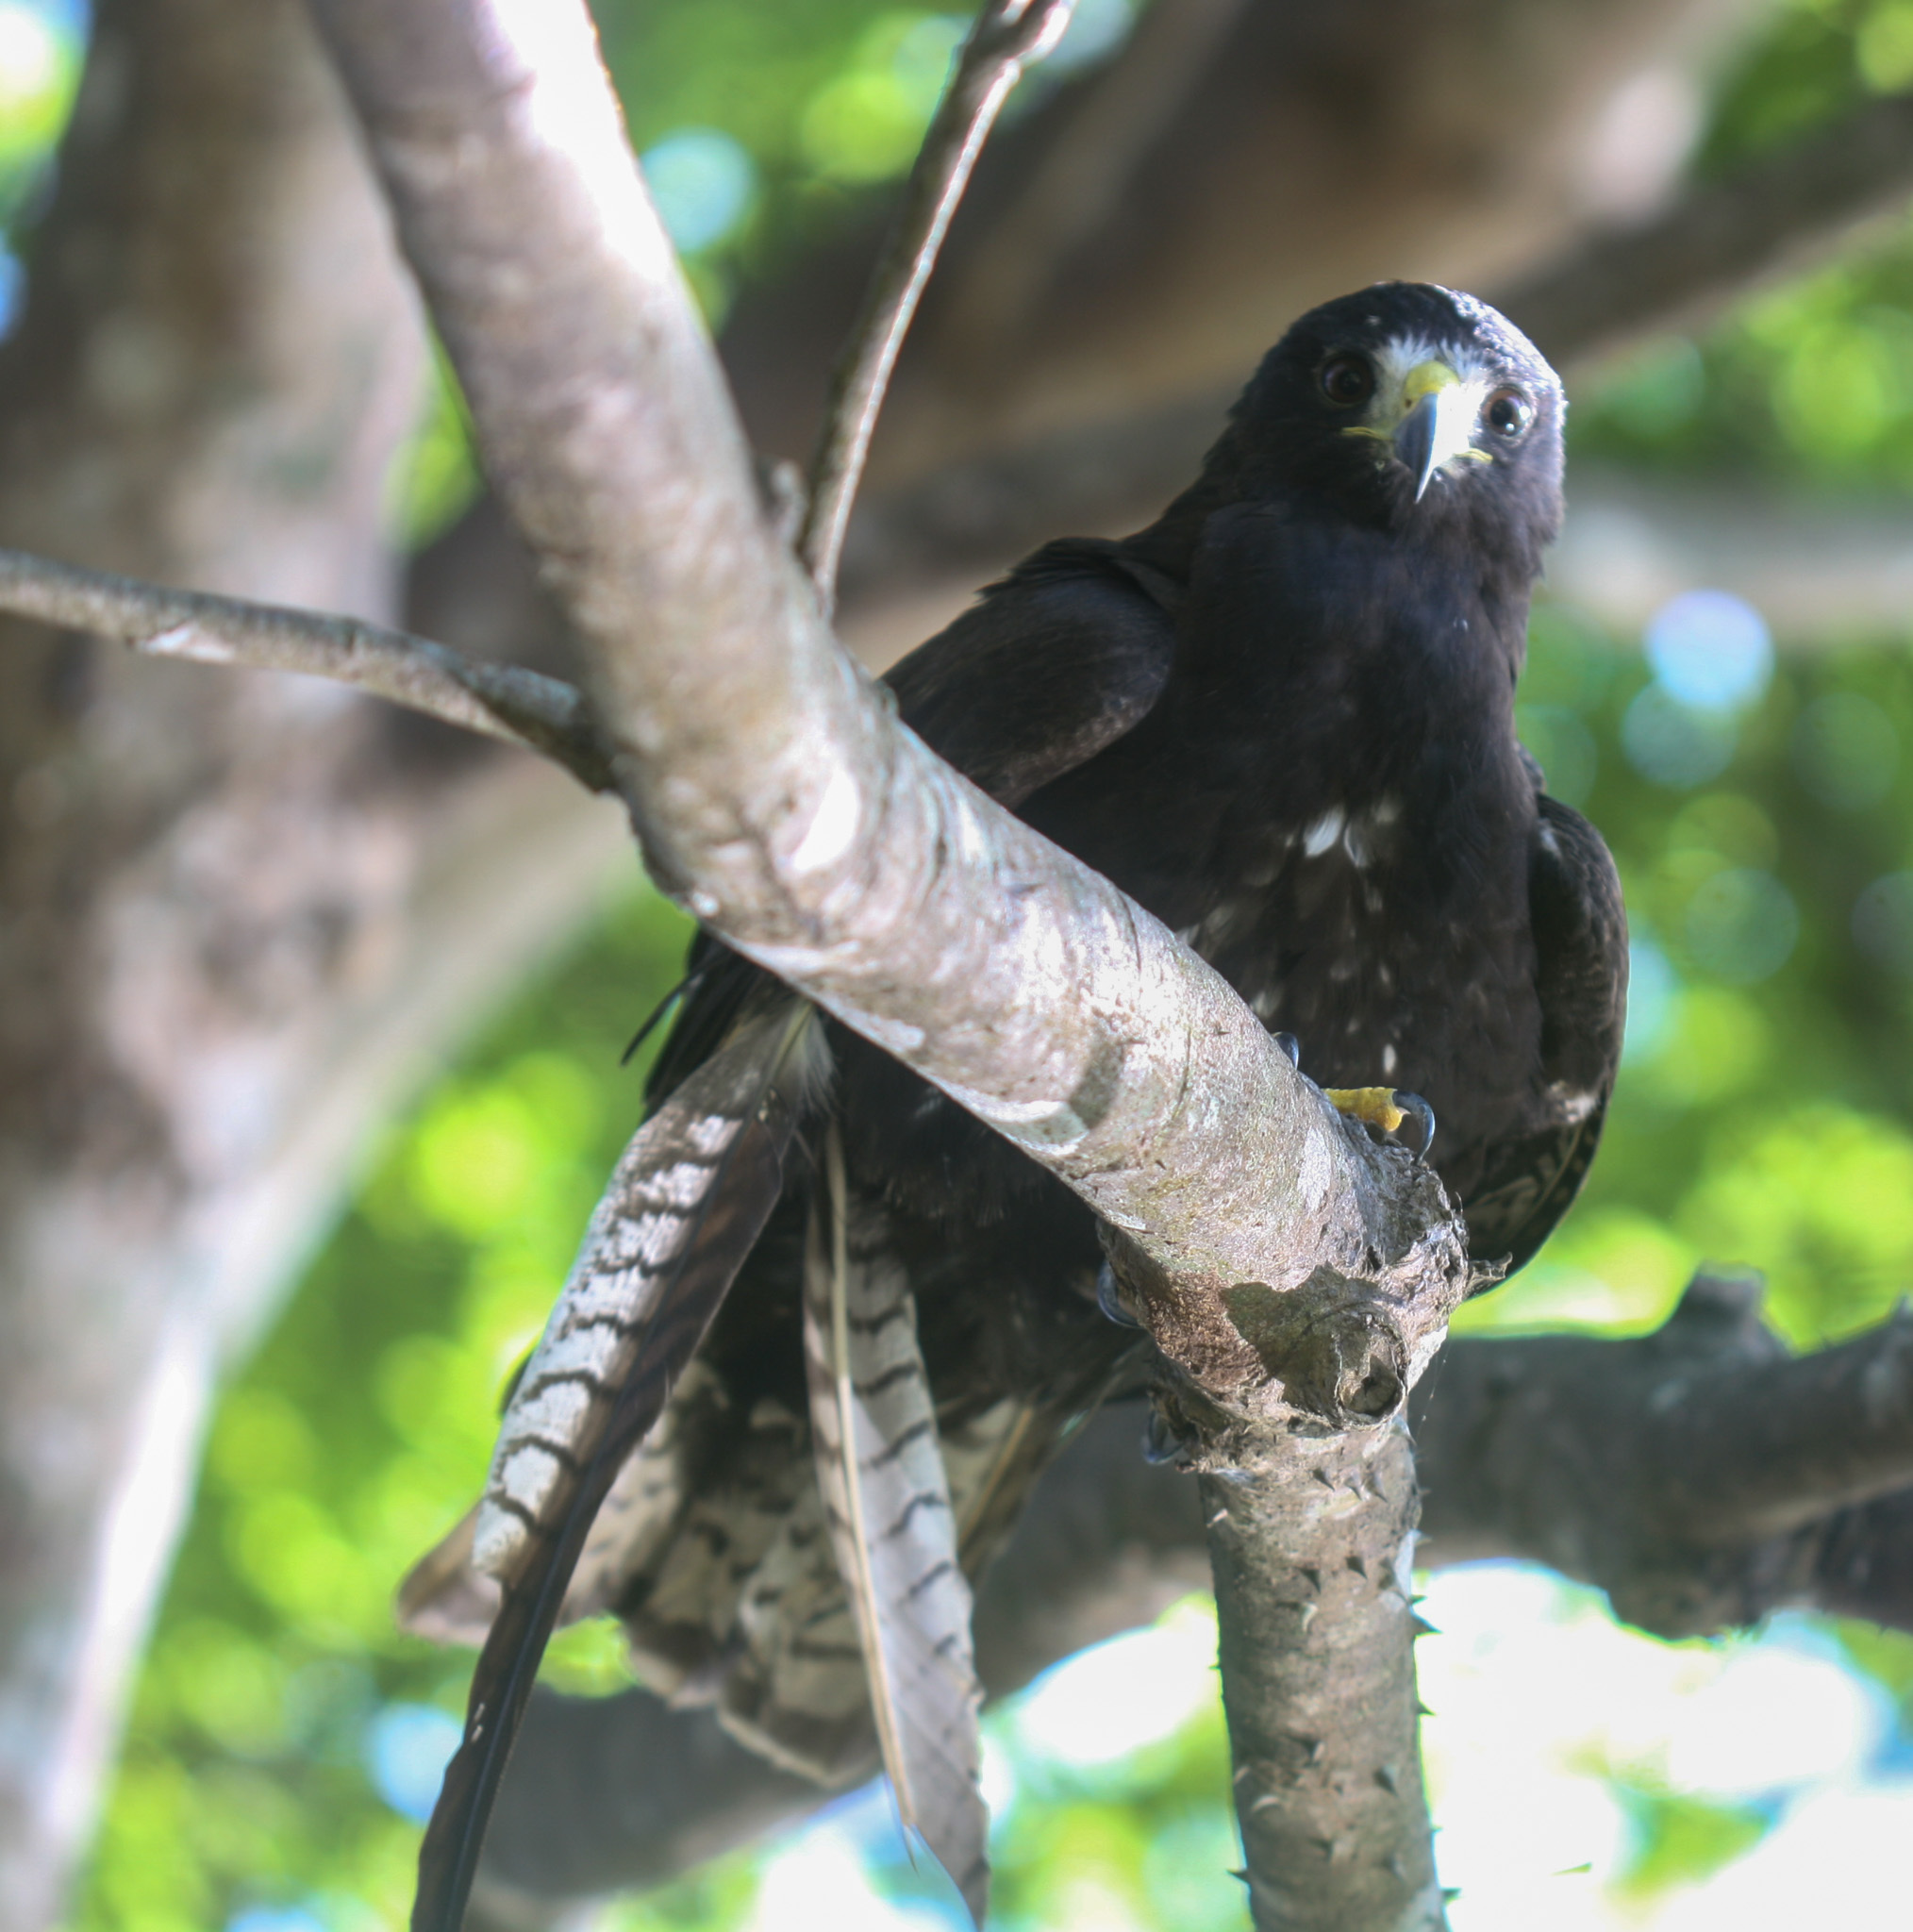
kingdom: Animalia
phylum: Chordata
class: Aves
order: Accipitriformes
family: Accipitridae
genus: Buteo
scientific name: Buteo albonotatus
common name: Zone-tailed hawk
